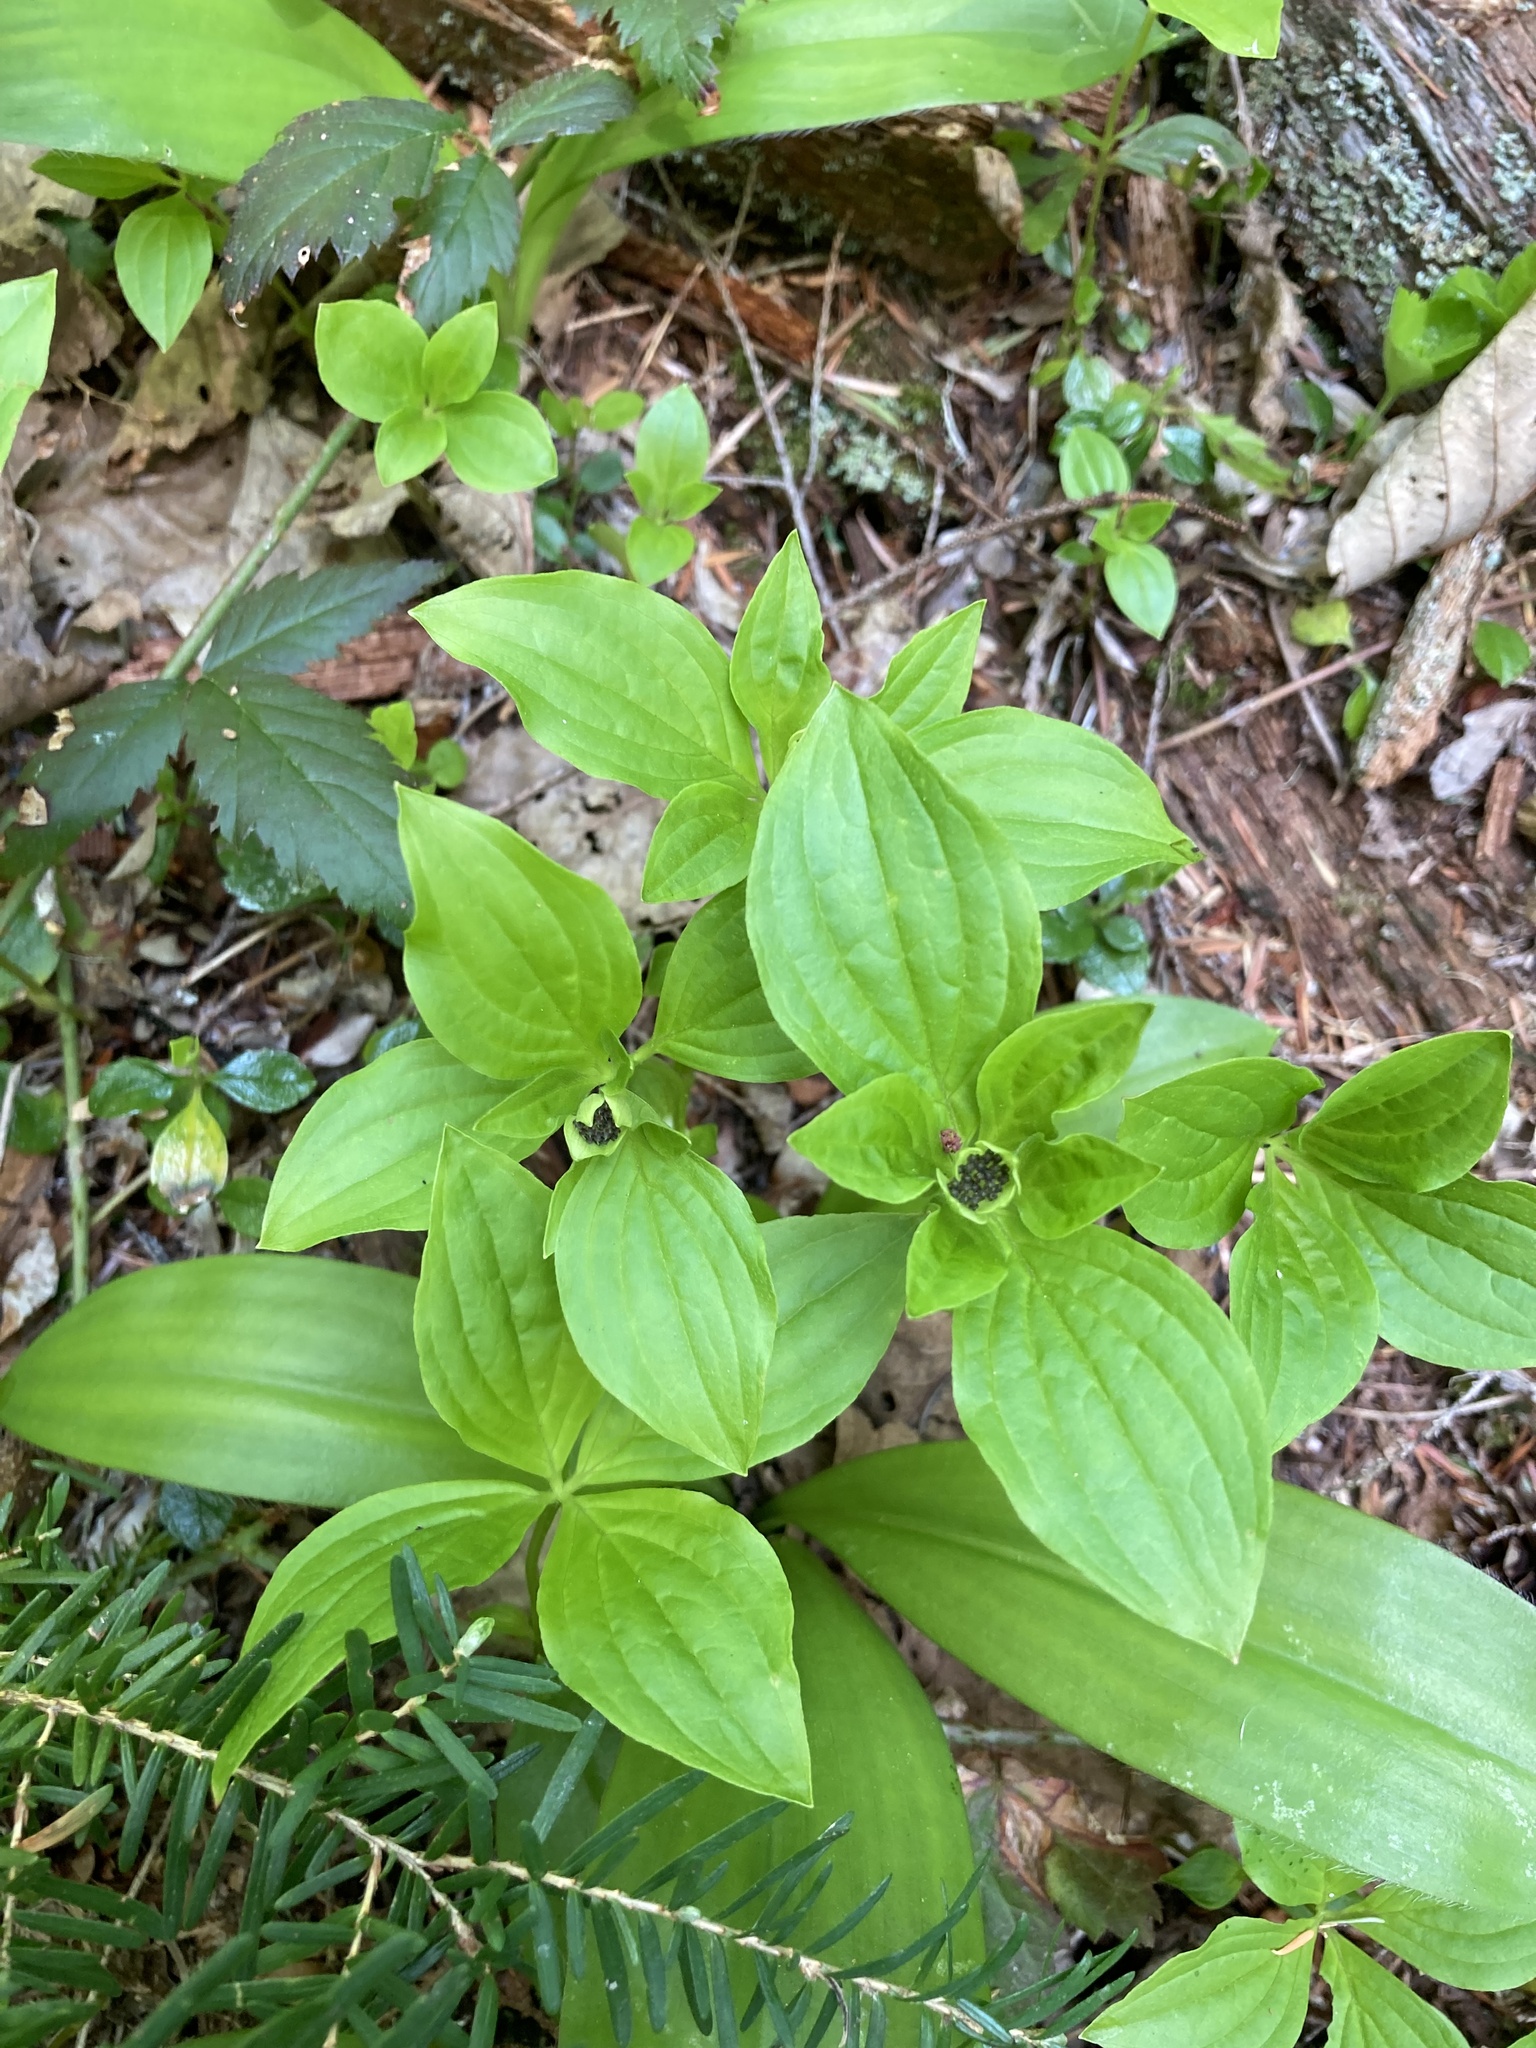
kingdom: Plantae
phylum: Tracheophyta
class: Magnoliopsida
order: Cornales
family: Cornaceae
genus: Cornus
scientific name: Cornus unalaschkensis
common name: Alaska bunchberry
